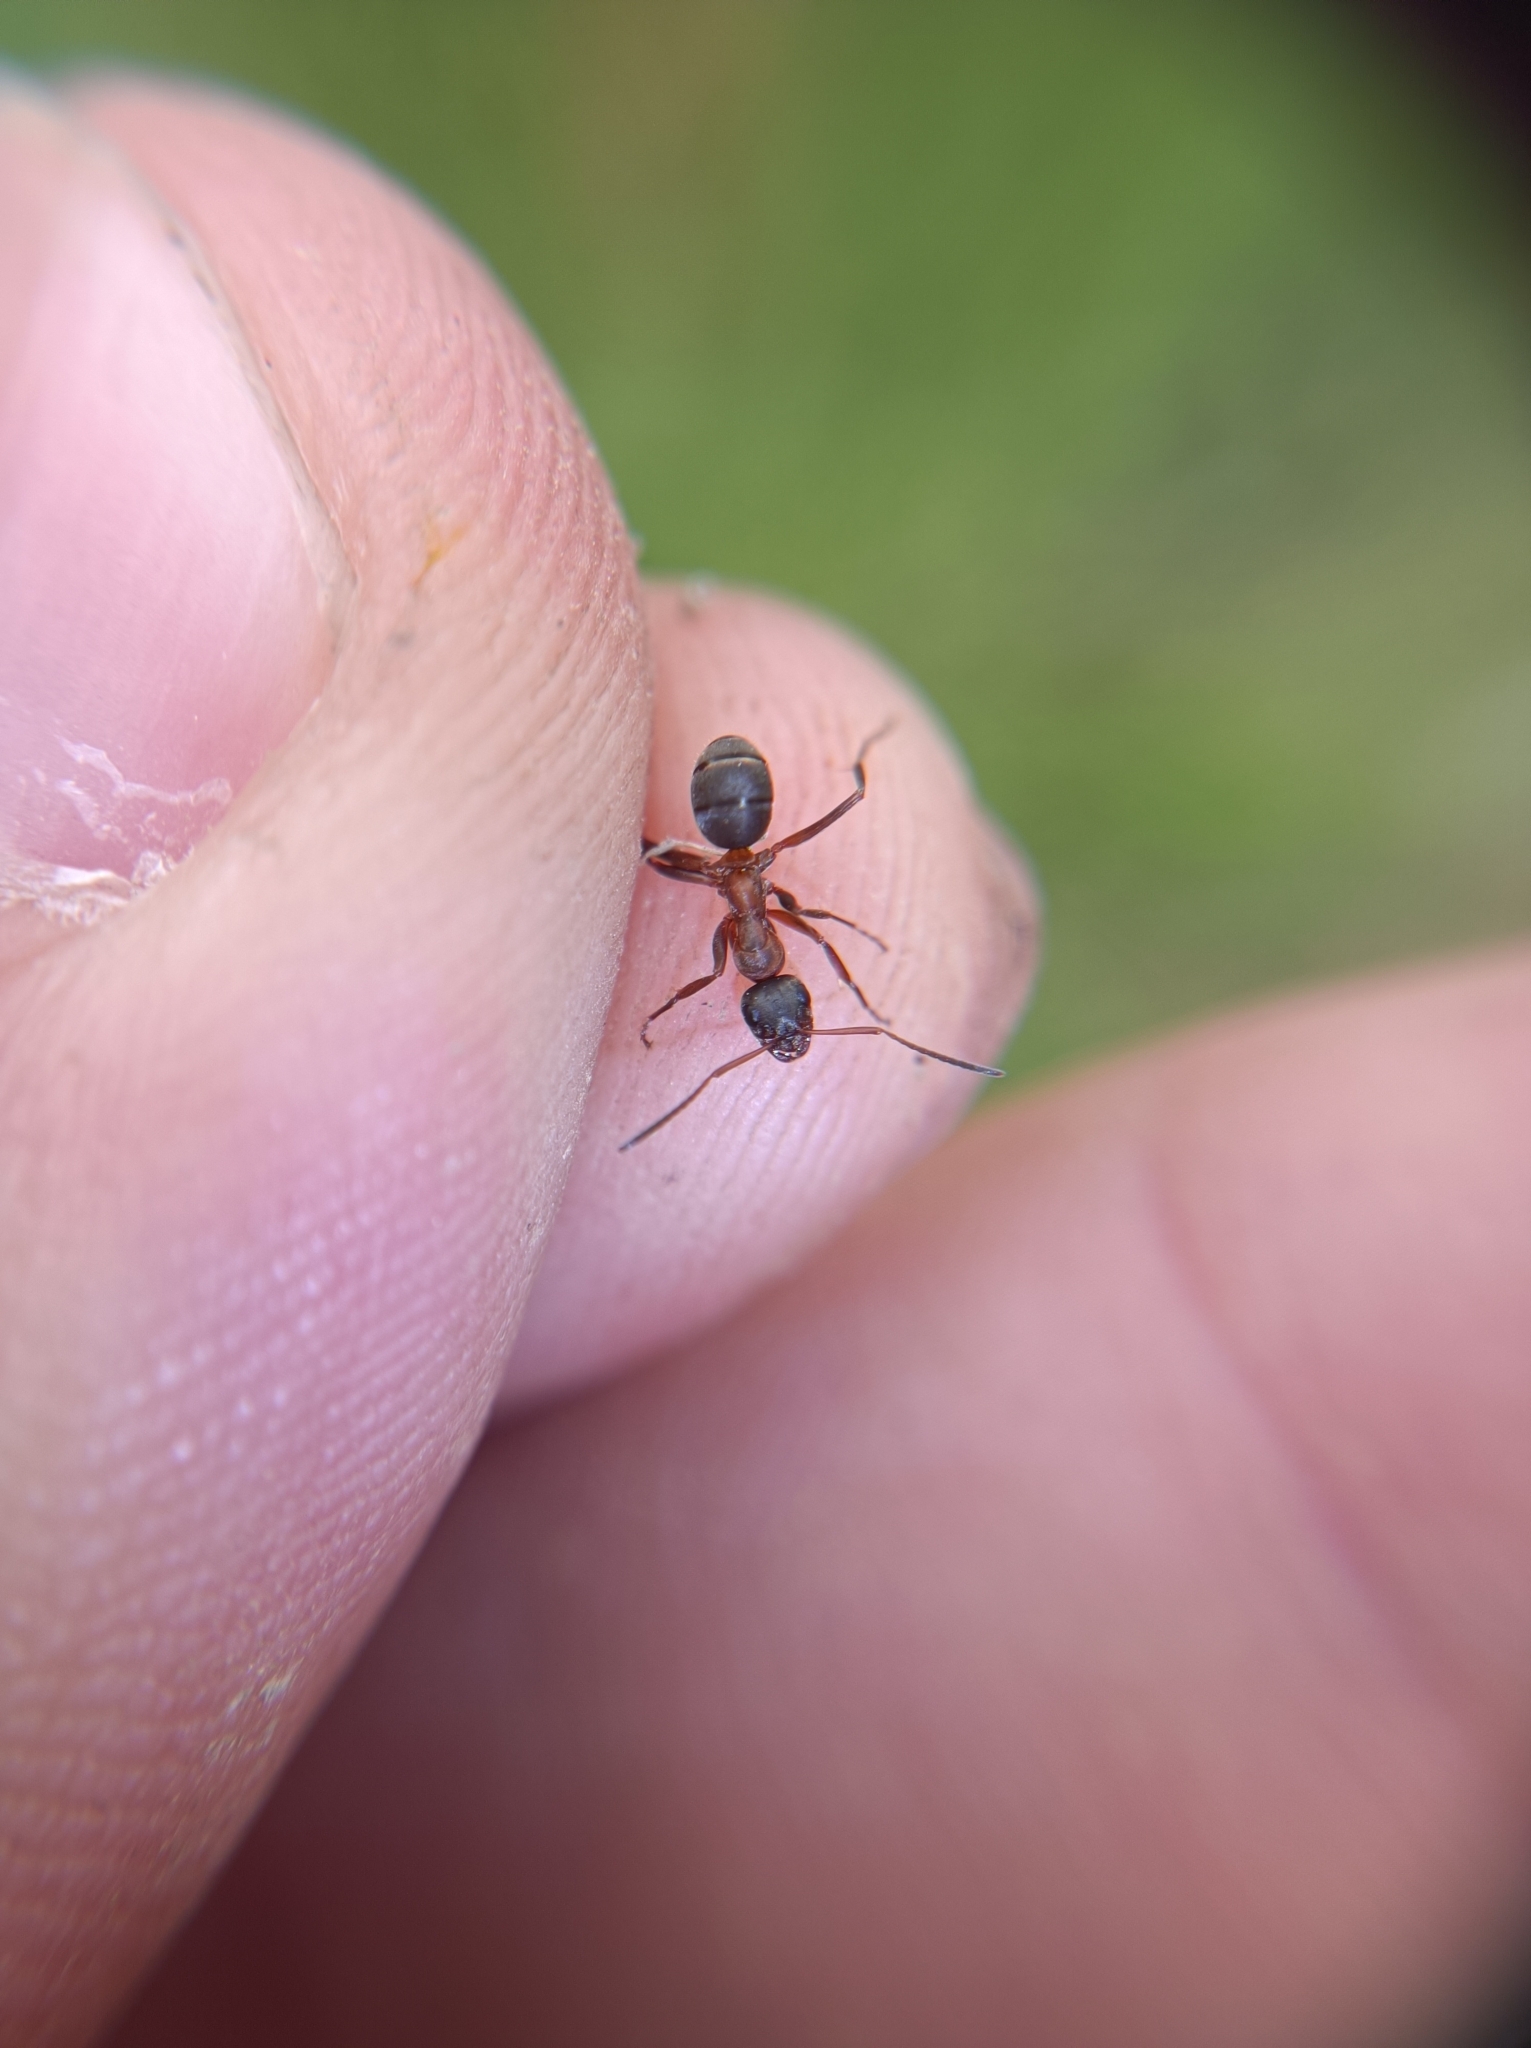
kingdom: Animalia
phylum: Arthropoda
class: Insecta
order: Hymenoptera
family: Formicidae
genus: Formica
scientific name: Formica cunicularia
